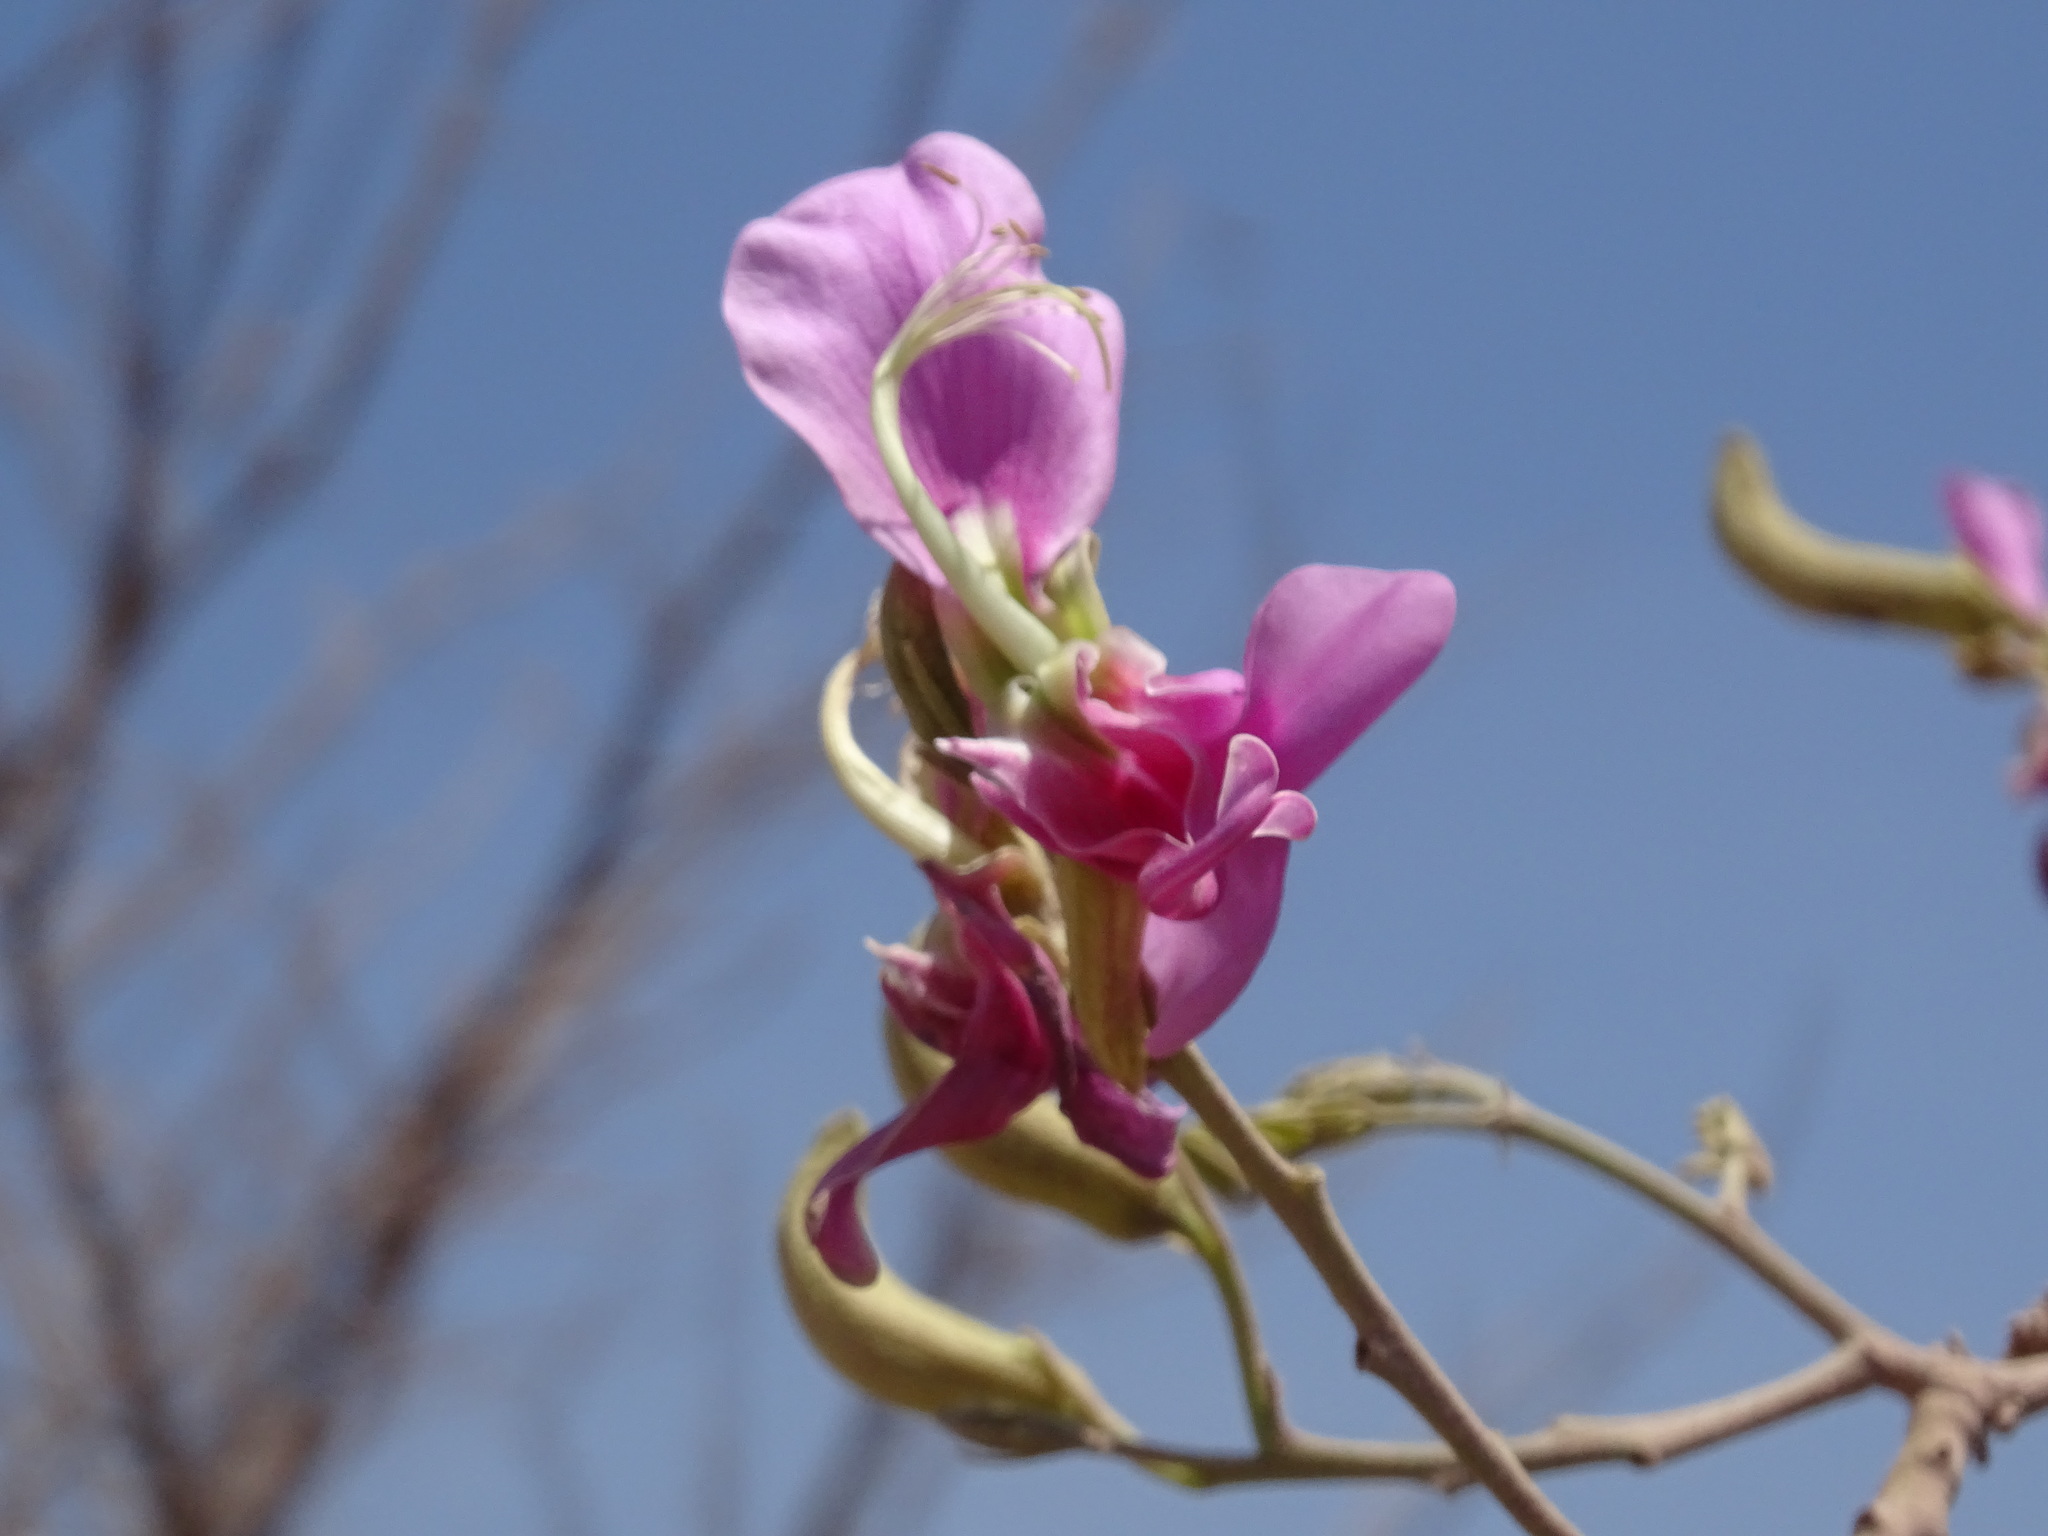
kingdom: Plantae
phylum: Tracheophyta
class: Magnoliopsida
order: Fabales
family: Fabaceae
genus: Harpalyce
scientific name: Harpalyce arborescens
